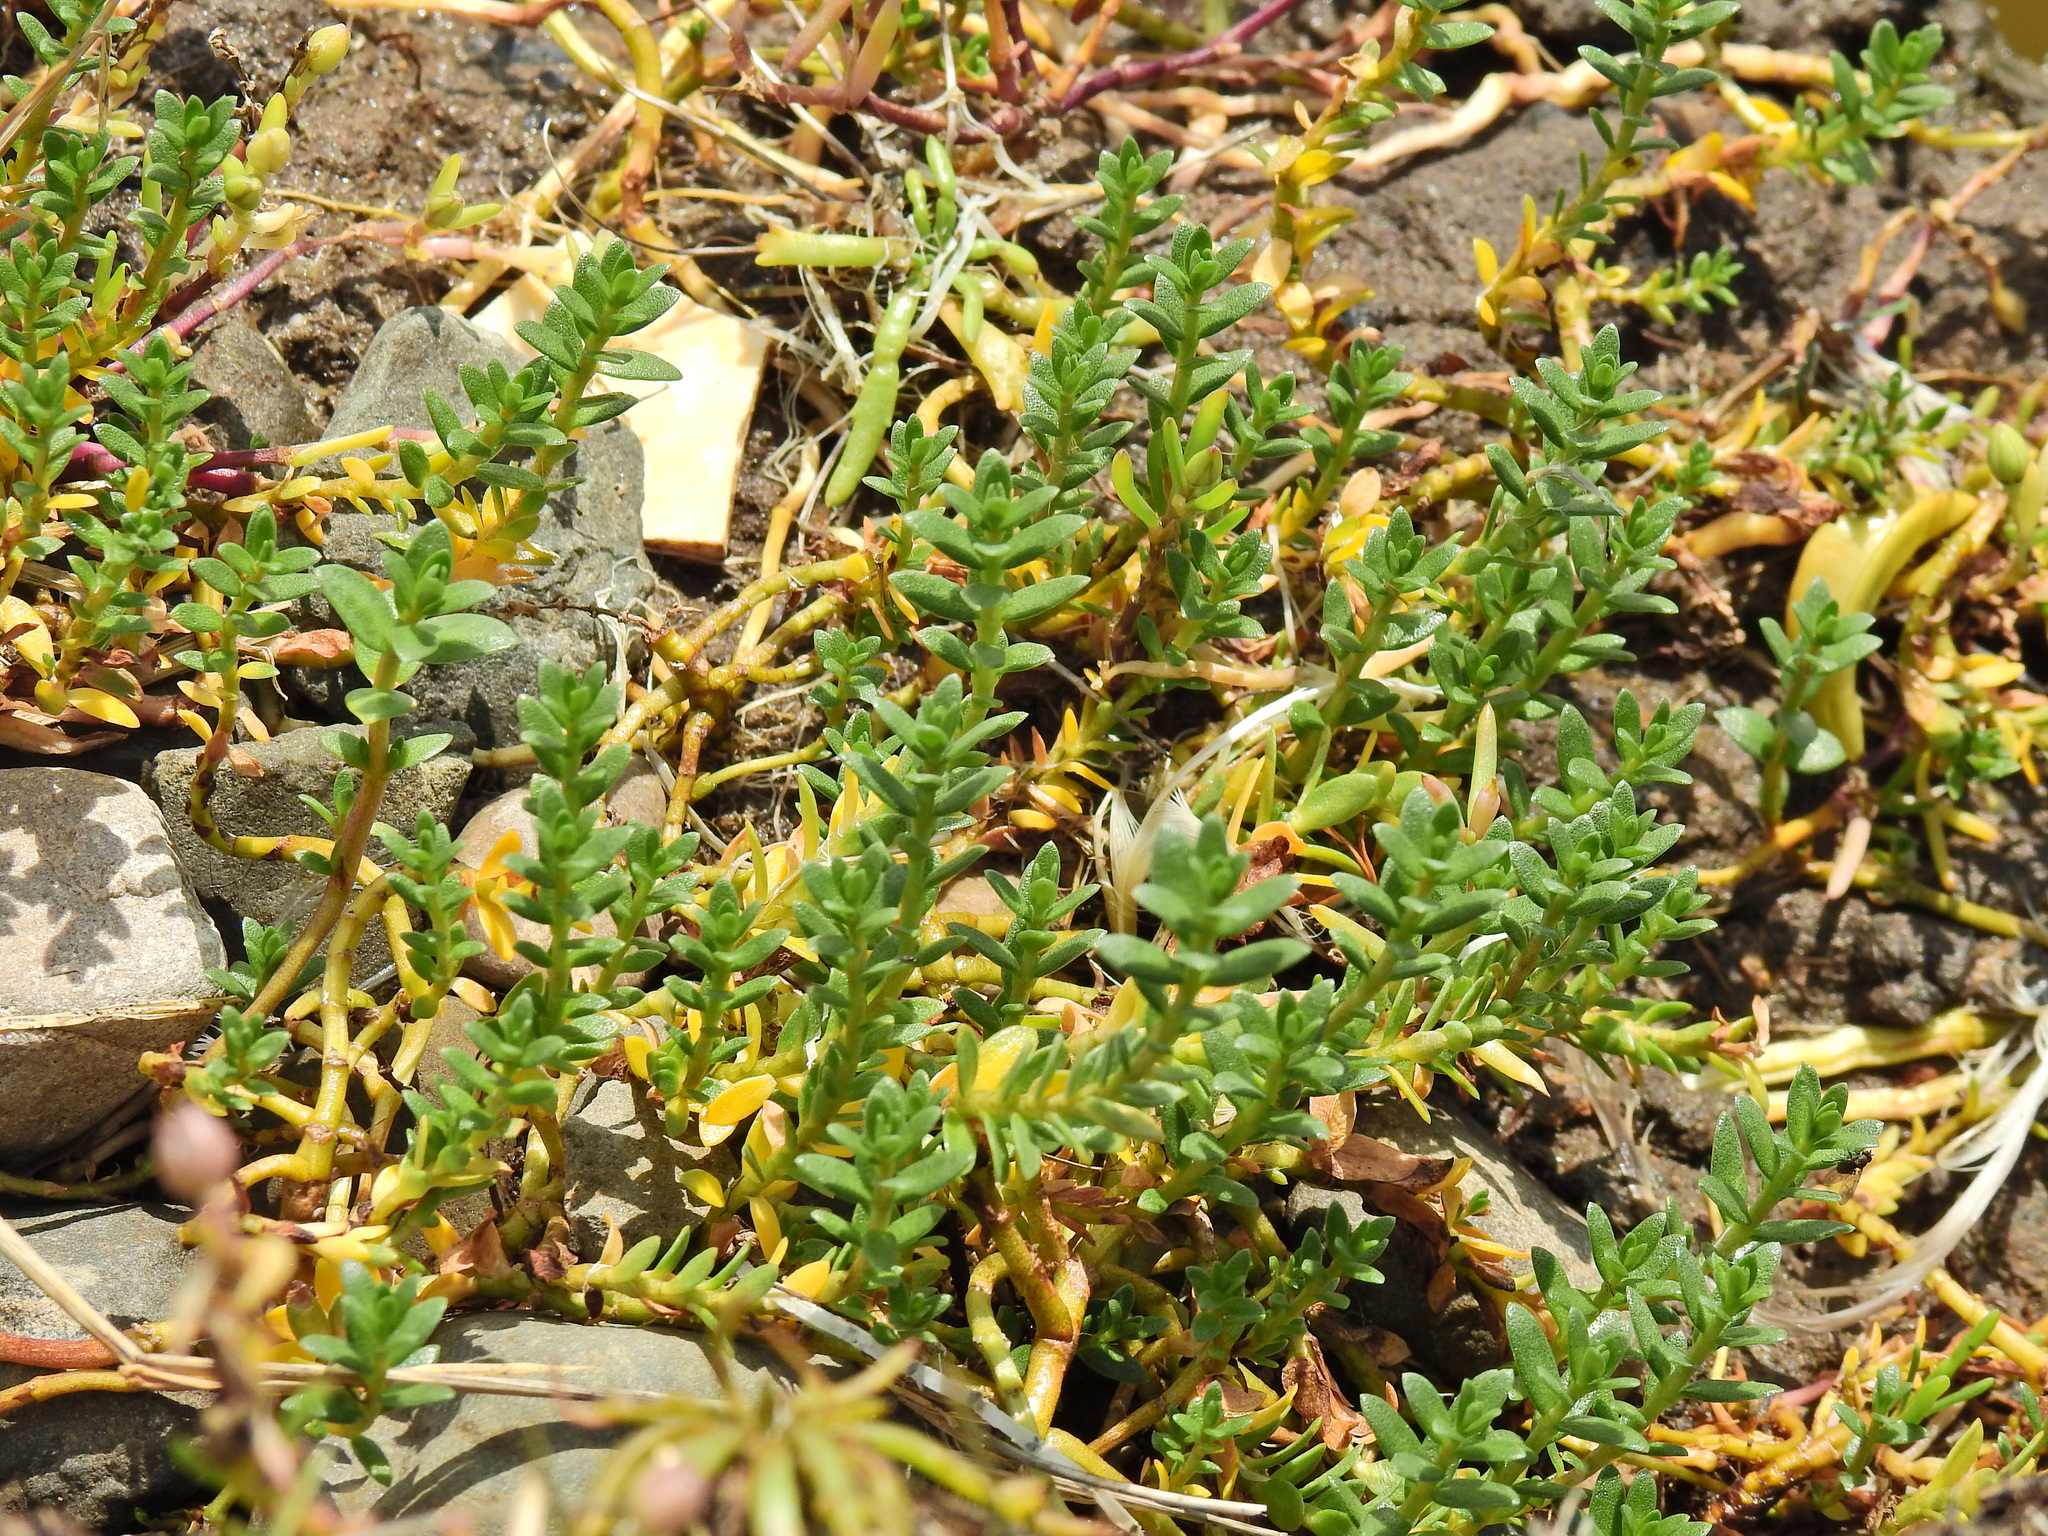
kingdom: Plantae
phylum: Tracheophyta
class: Magnoliopsida
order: Ericales
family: Primulaceae
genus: Lysimachia
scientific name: Lysimachia maritima
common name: Sea milkwort
